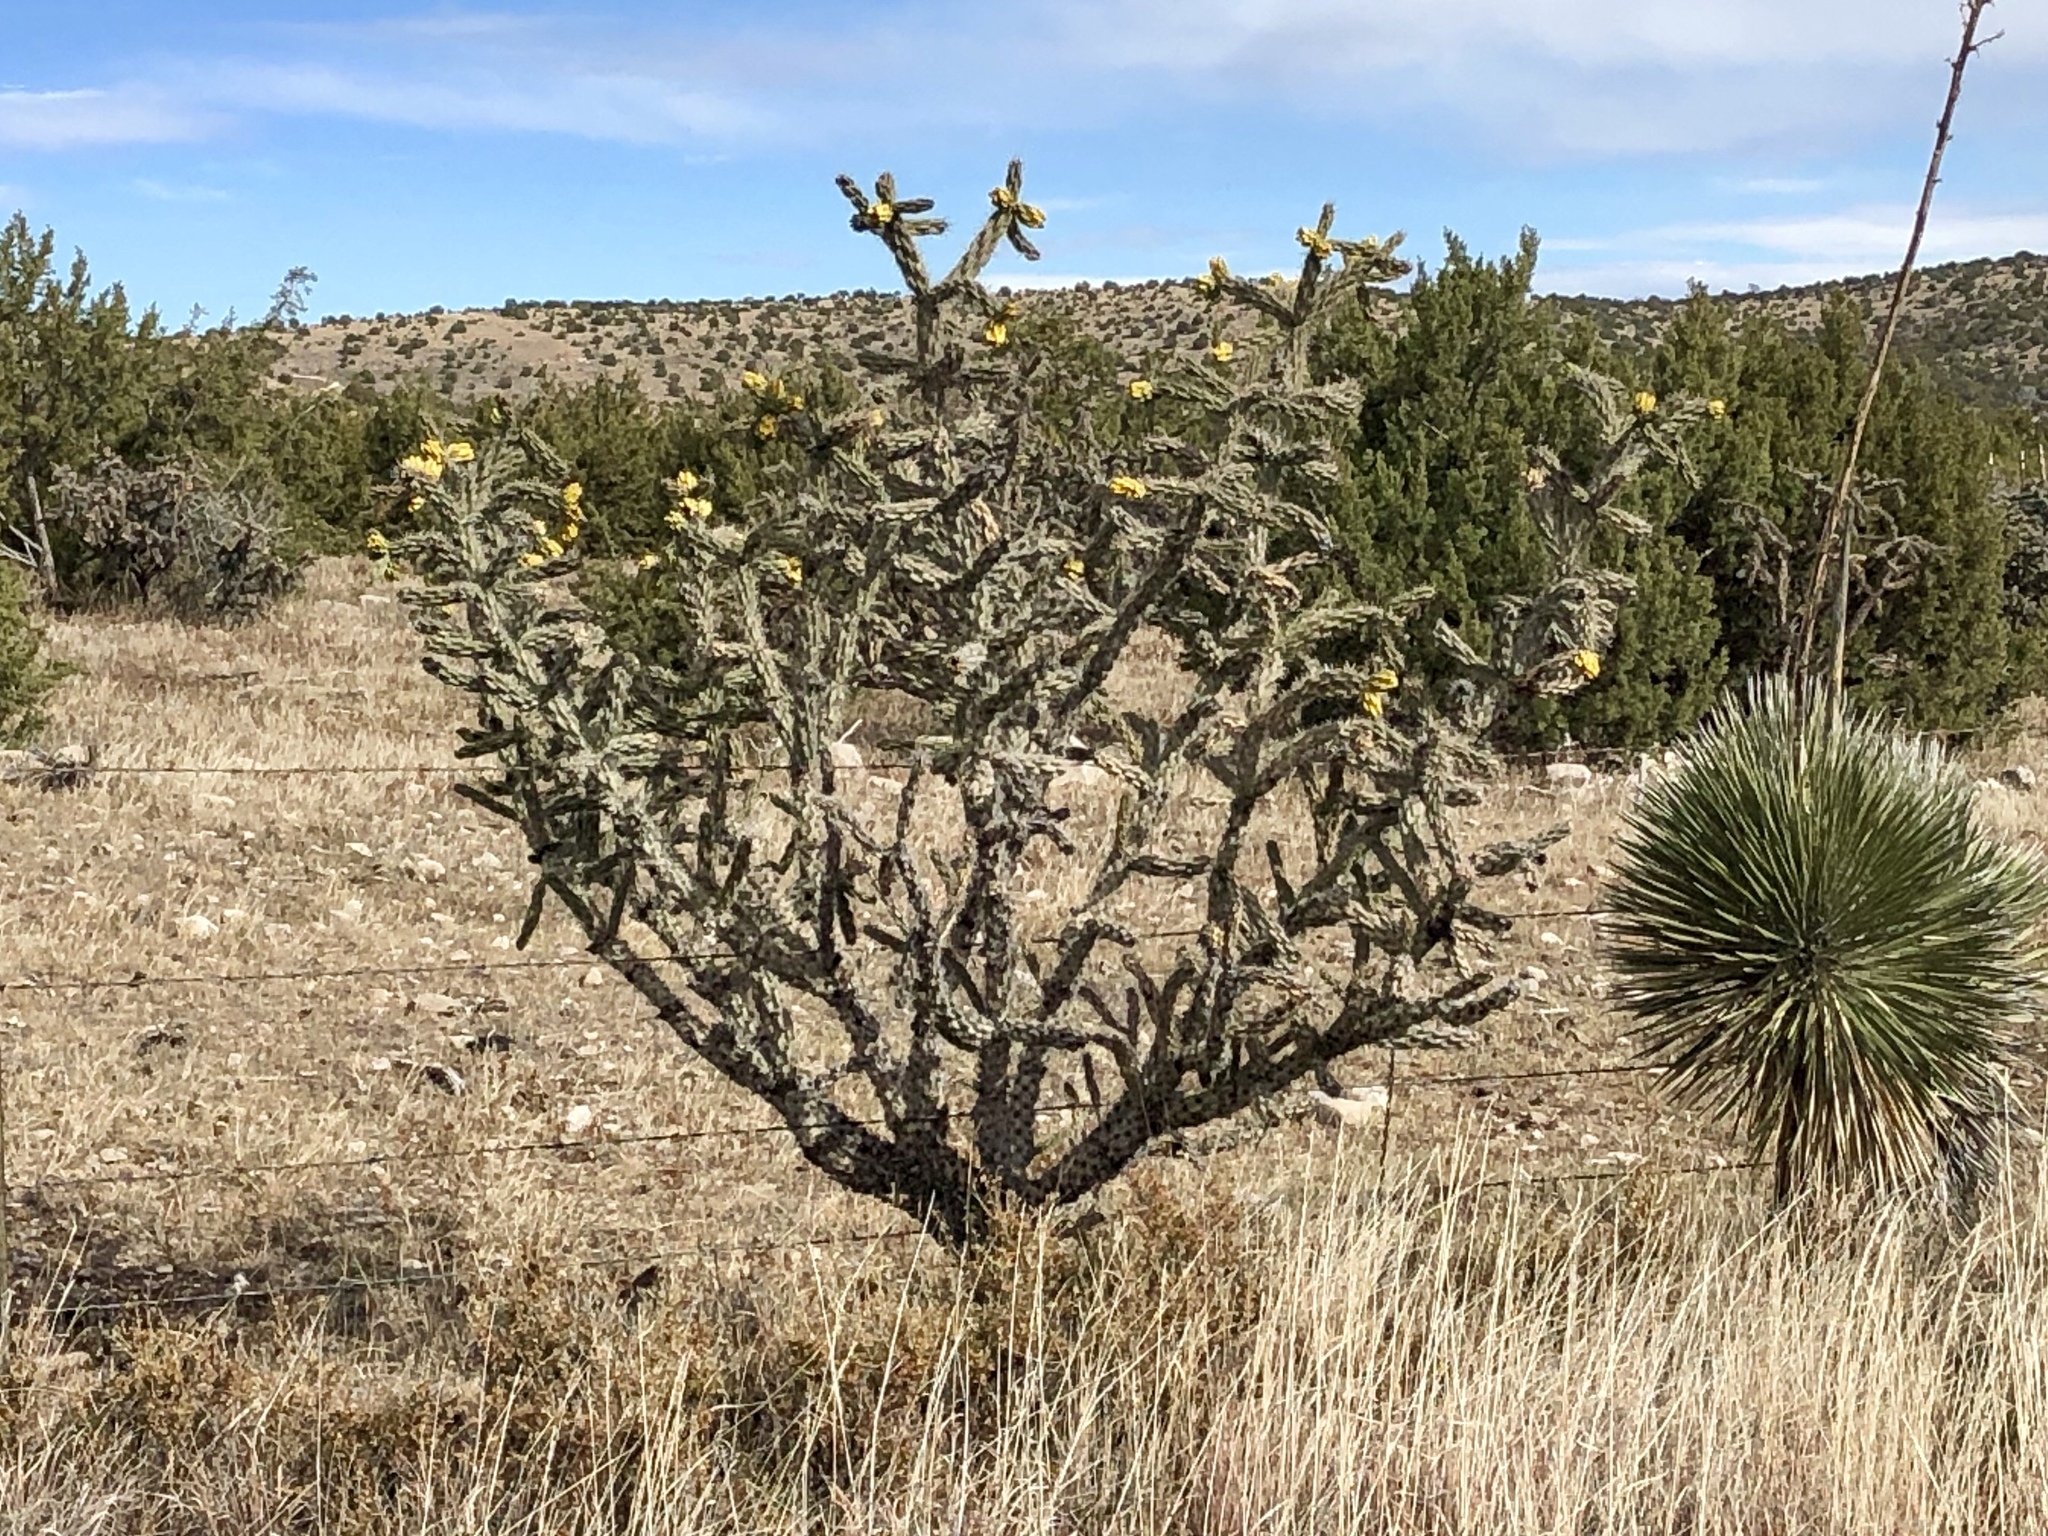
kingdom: Plantae
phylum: Tracheophyta
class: Magnoliopsida
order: Caryophyllales
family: Cactaceae
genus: Cylindropuntia
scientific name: Cylindropuntia imbricata
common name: Candelabrum cactus
